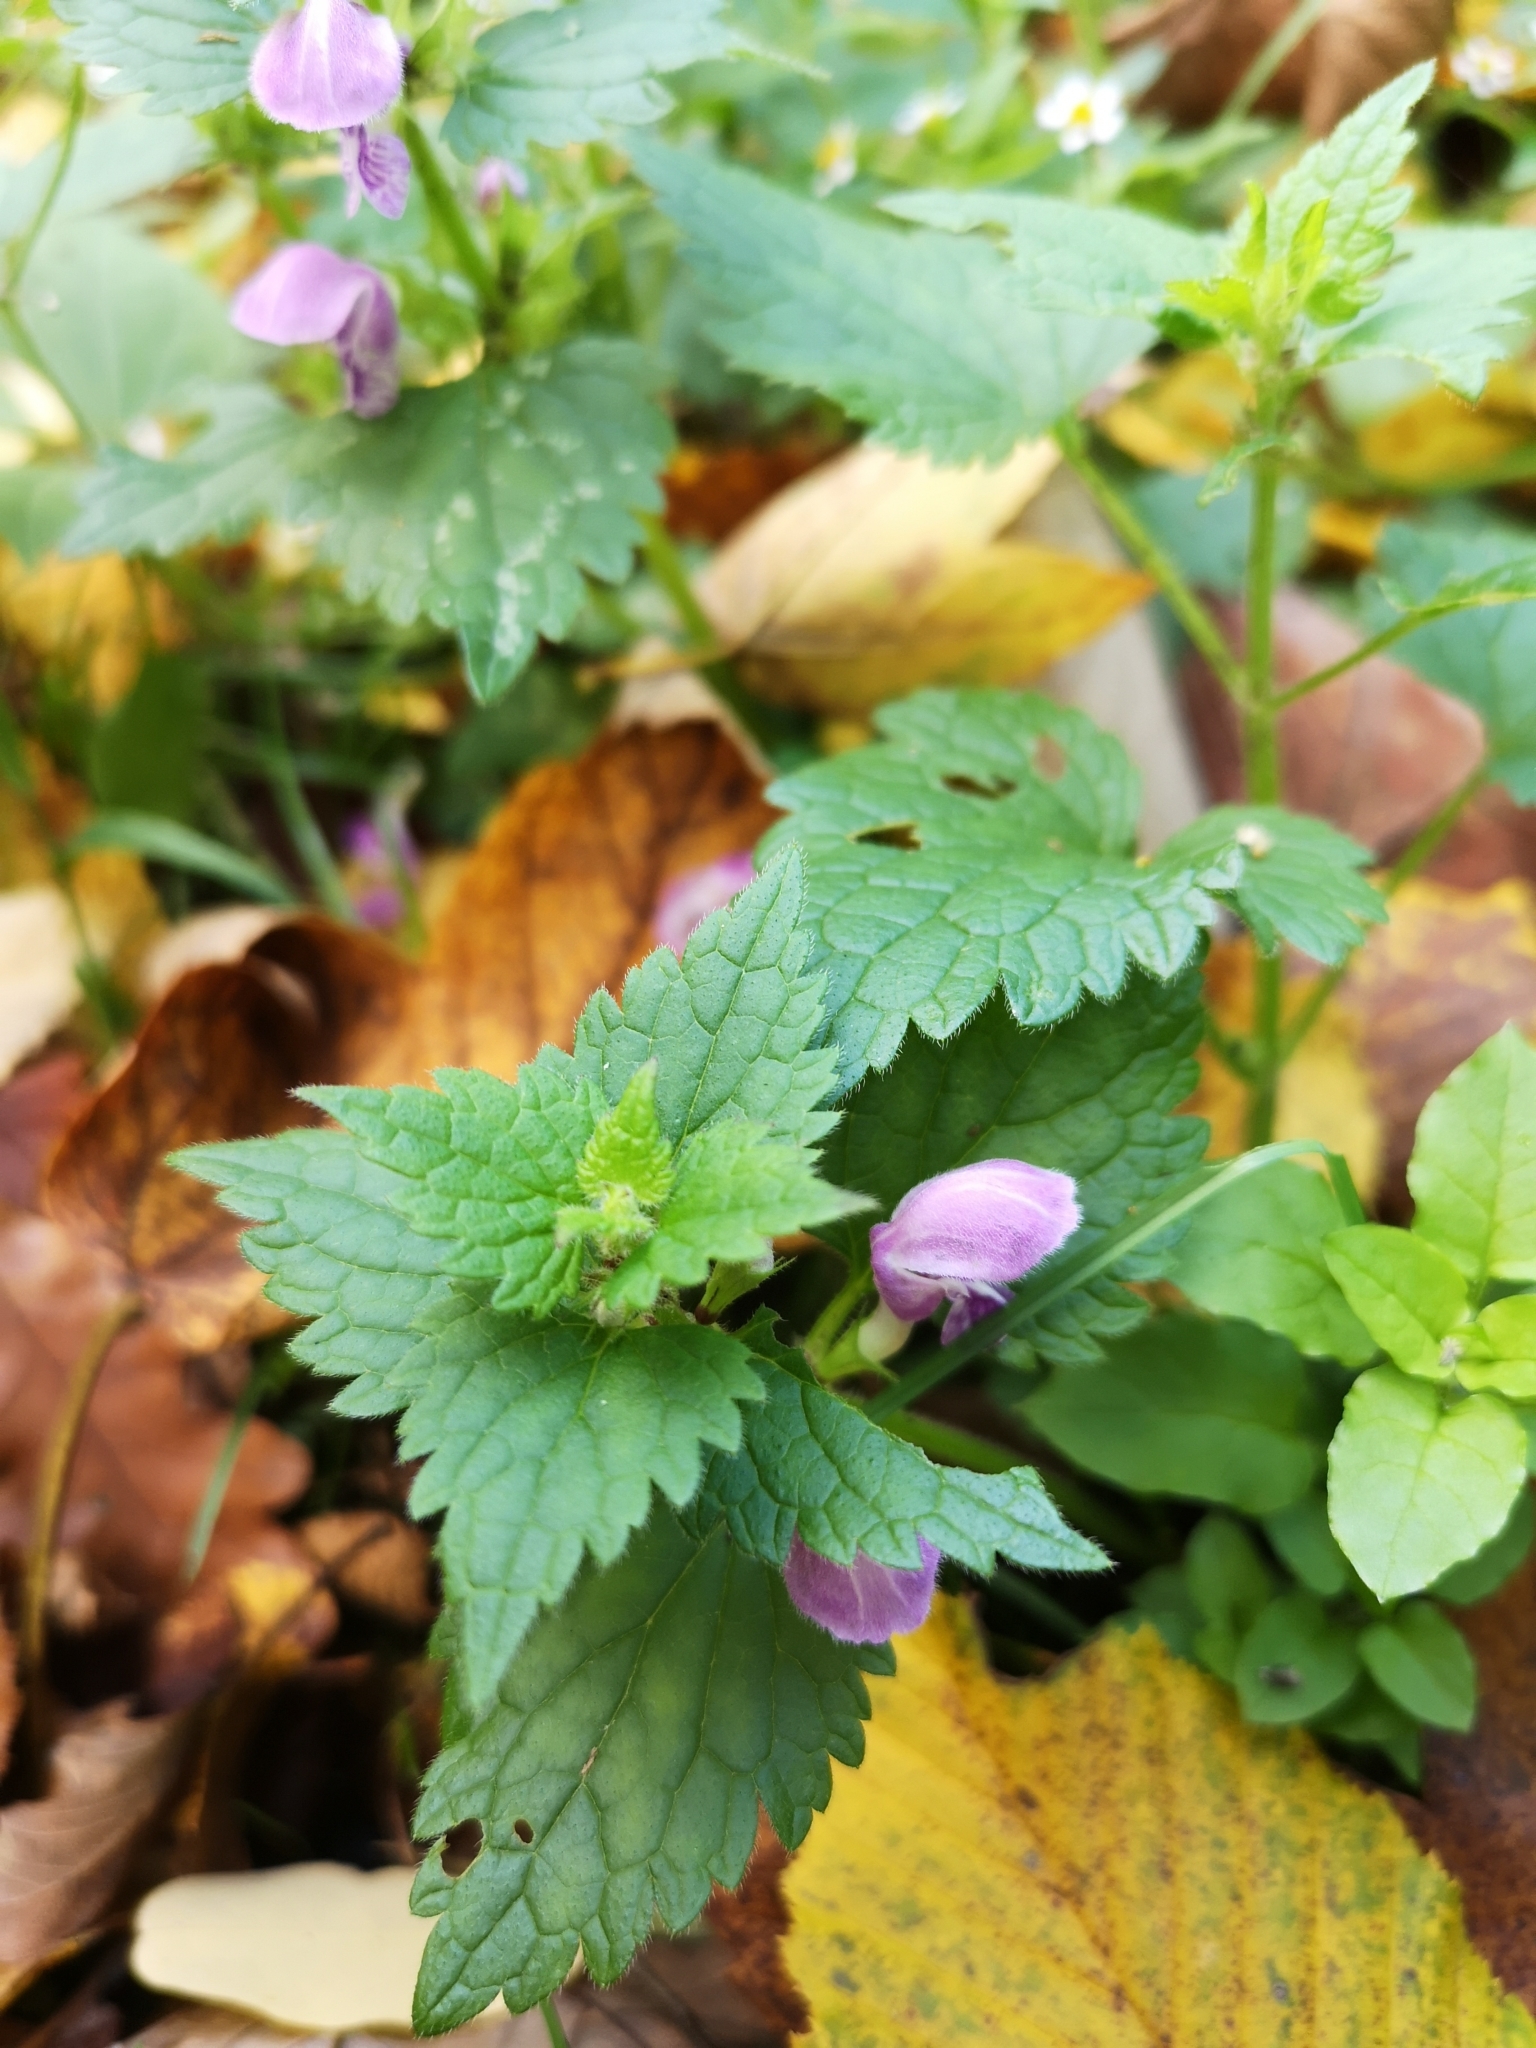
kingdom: Plantae
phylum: Tracheophyta
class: Magnoliopsida
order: Lamiales
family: Lamiaceae
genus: Lamium
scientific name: Lamium maculatum
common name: Spotted dead-nettle
